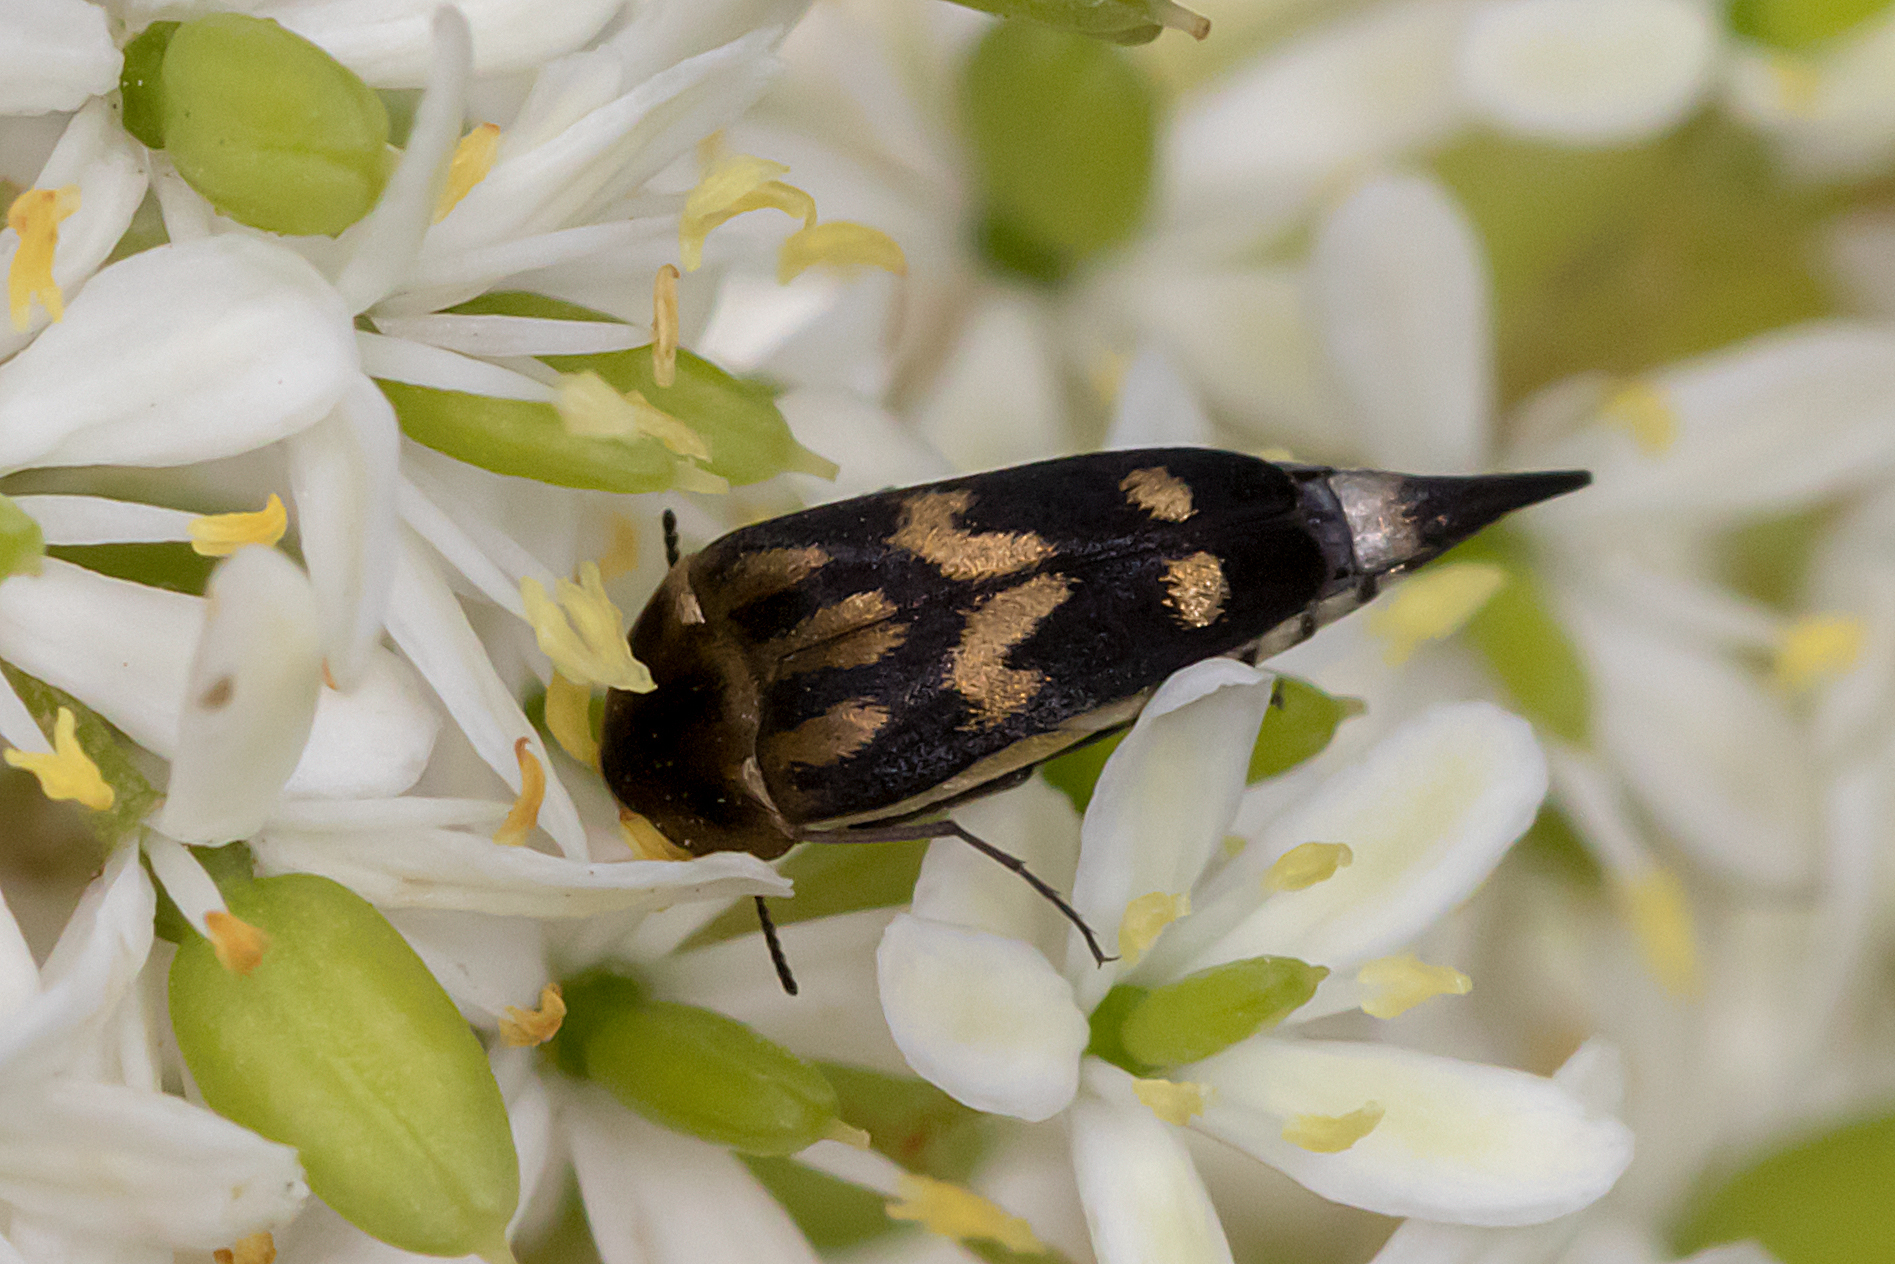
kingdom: Animalia
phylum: Arthropoda
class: Insecta
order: Coleoptera
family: Mordellidae
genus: Mordella
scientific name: Mordella
